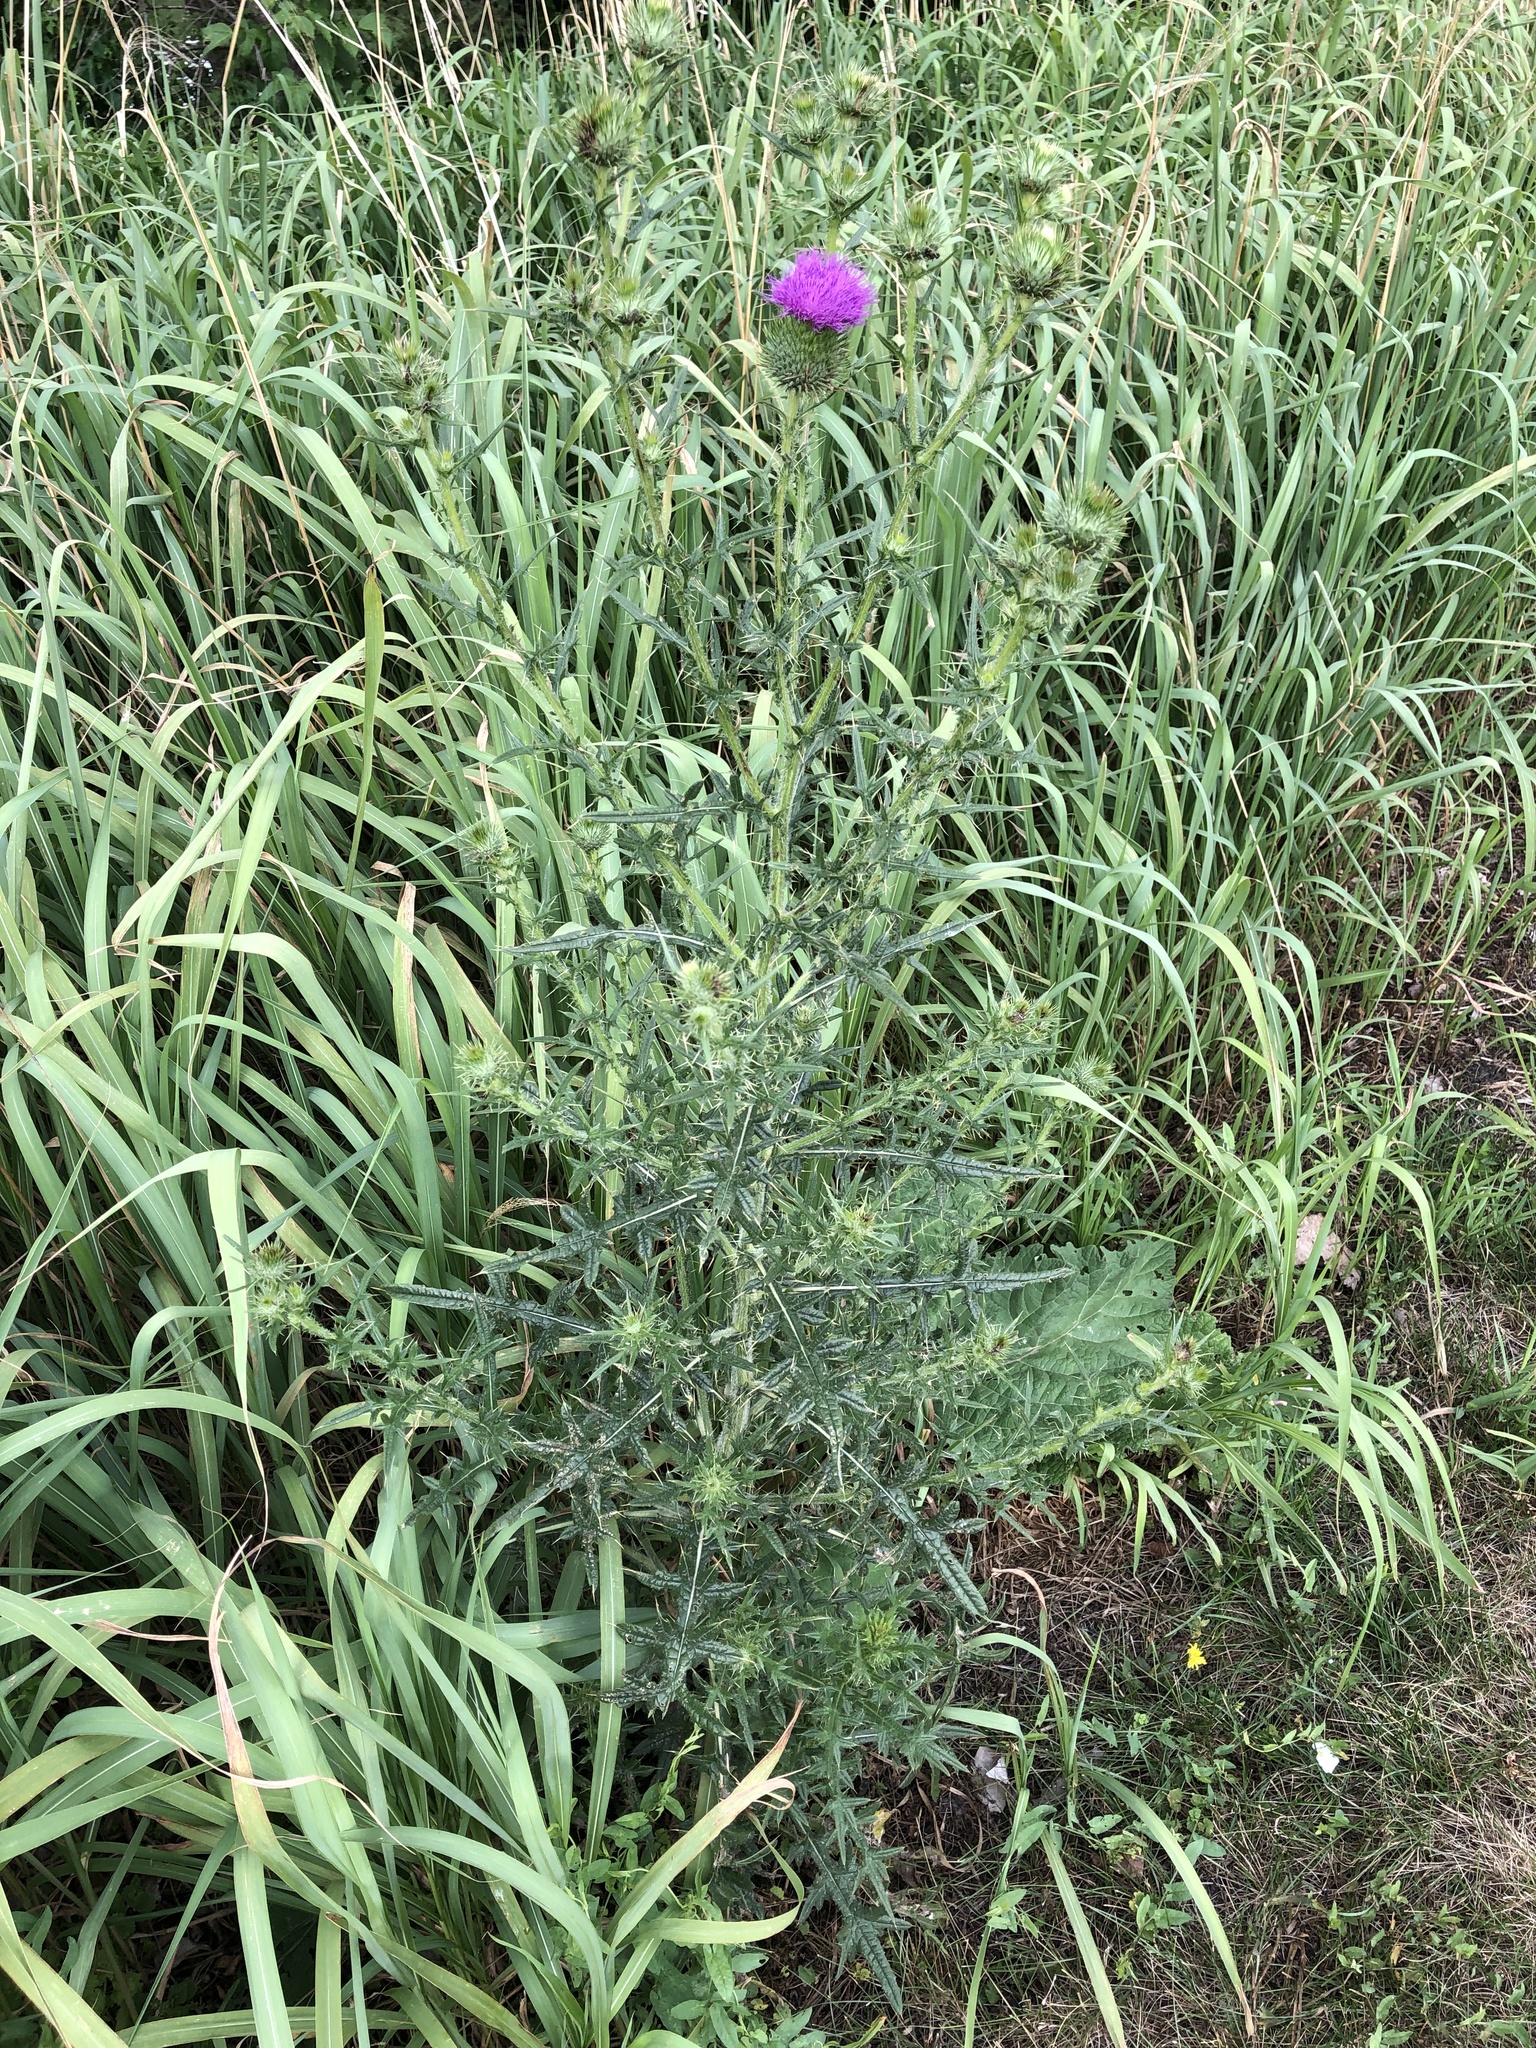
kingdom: Plantae
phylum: Tracheophyta
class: Magnoliopsida
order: Asterales
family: Asteraceae
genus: Cirsium
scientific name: Cirsium vulgare
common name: Bull thistle
